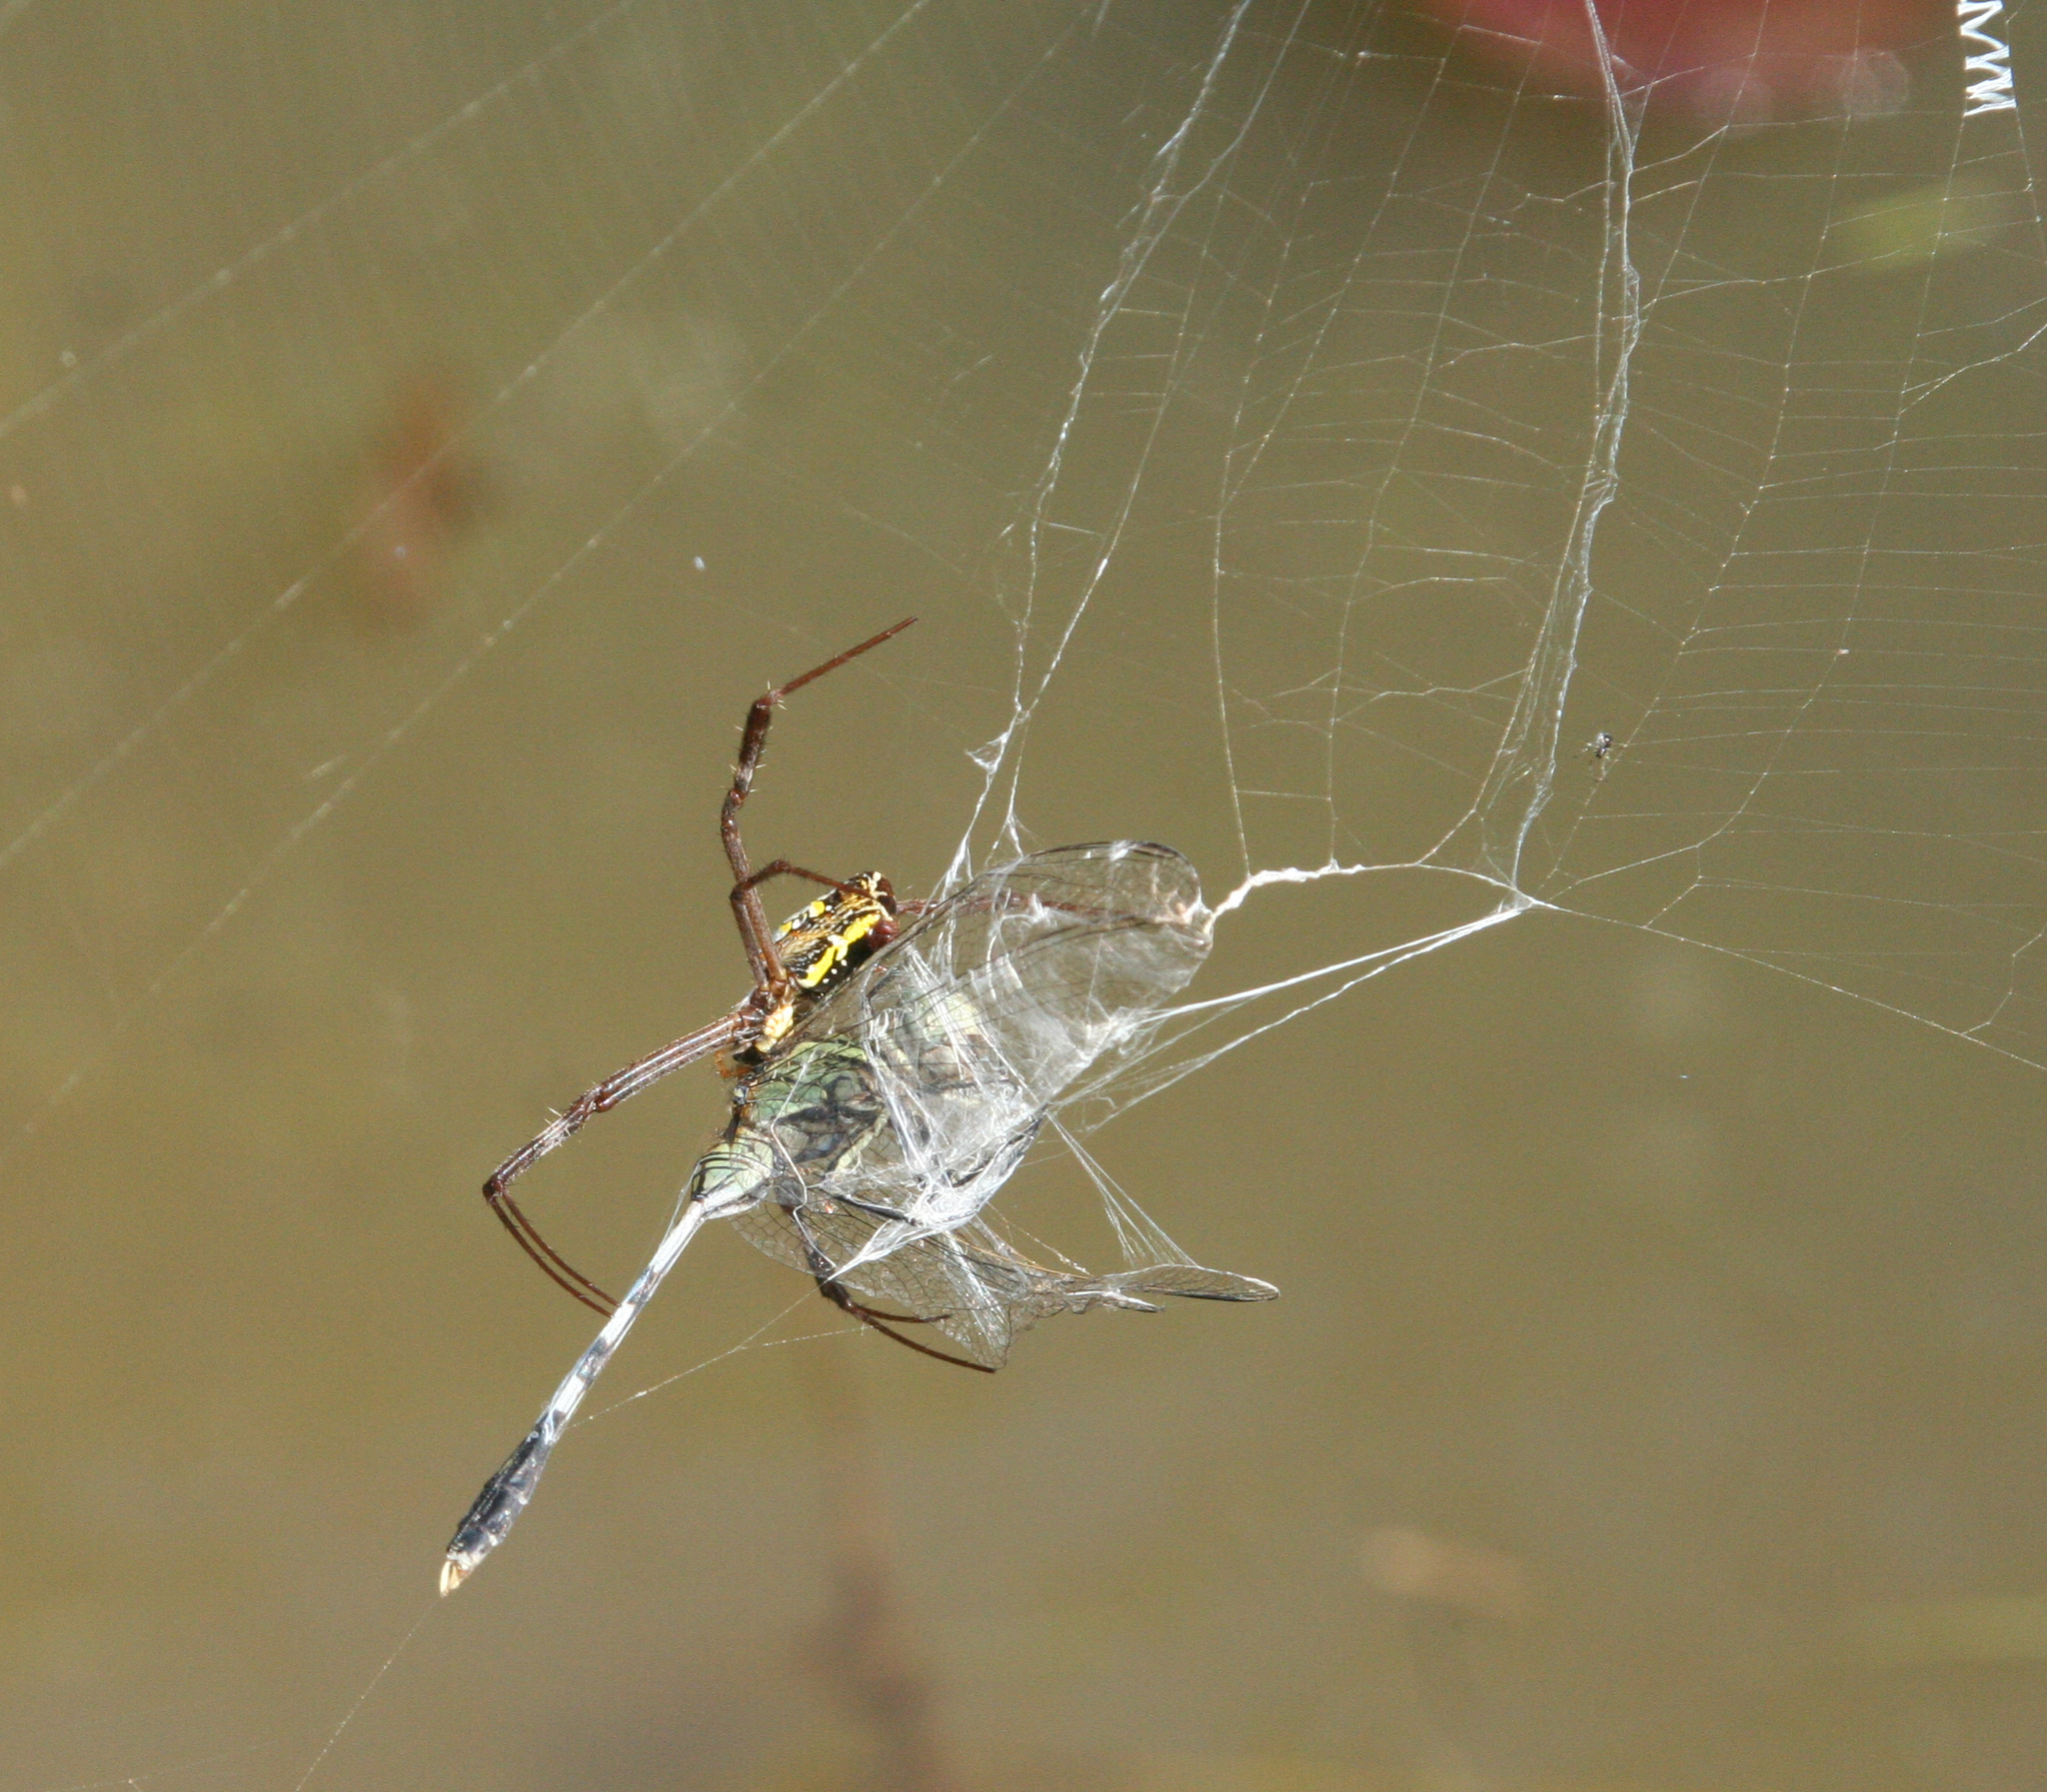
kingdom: Animalia
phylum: Arthropoda
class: Insecta
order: Odonata
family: Libellulidae
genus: Orthetrum
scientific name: Orthetrum sabina
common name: Slender skimmer
